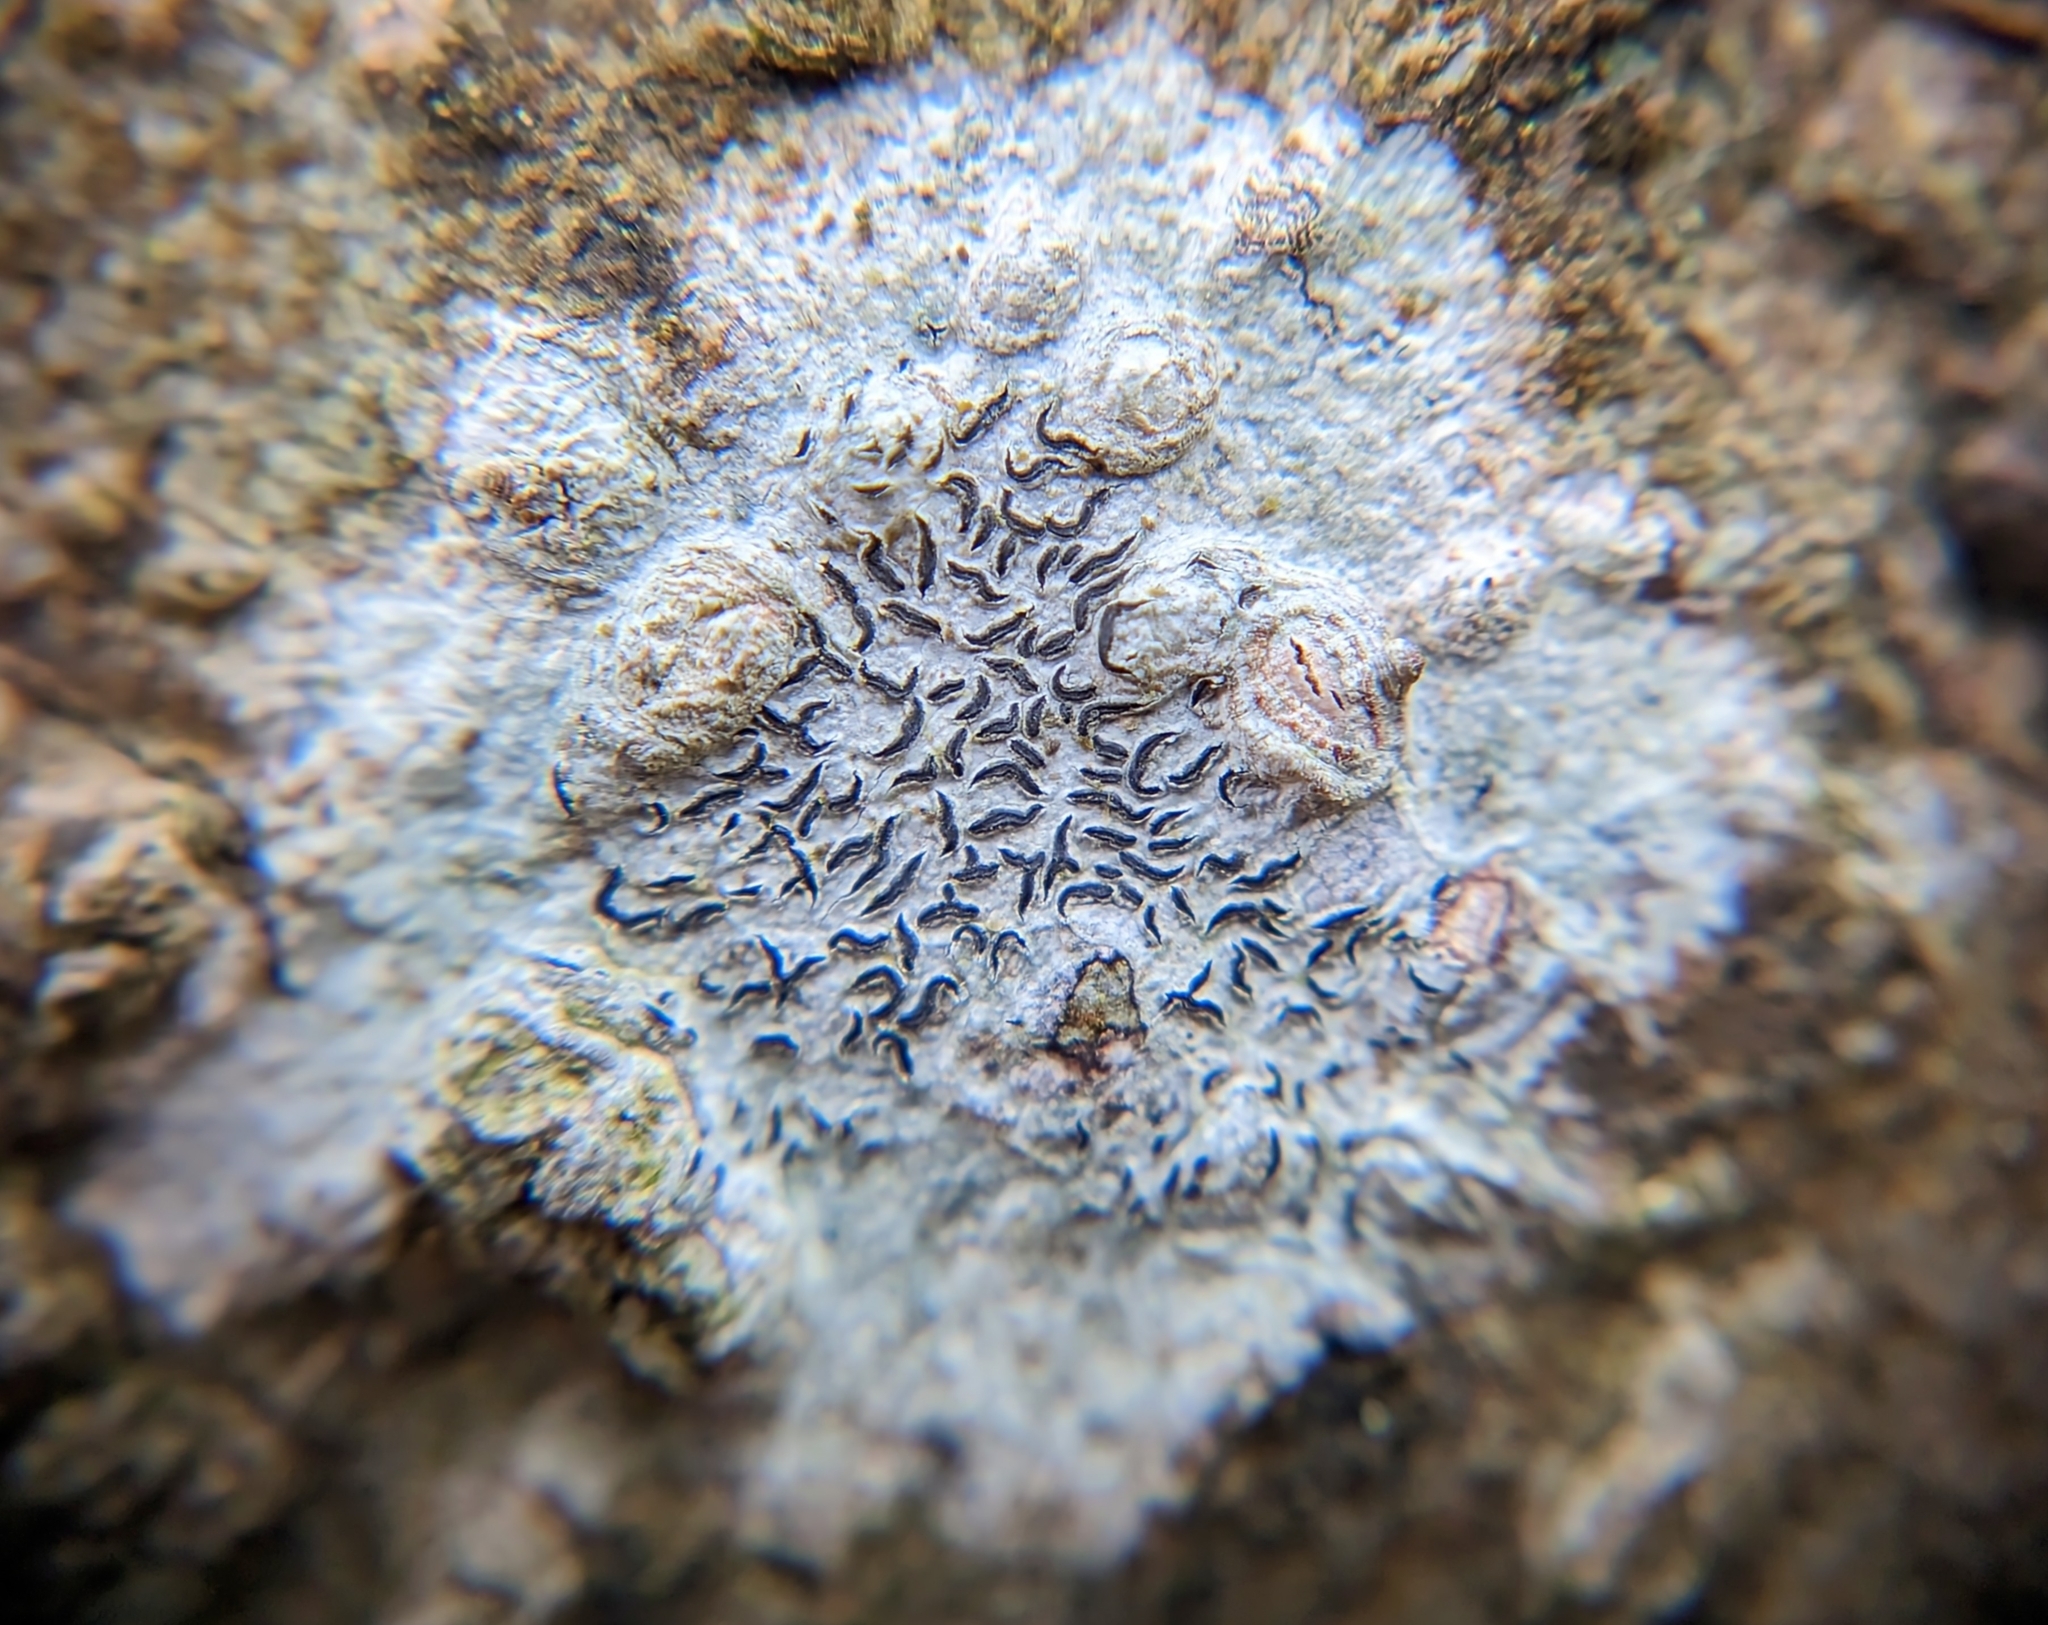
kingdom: Fungi
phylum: Ascomycota
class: Lecanoromycetes
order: Ostropales
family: Graphidaceae
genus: Graphis
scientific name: Graphis scripta
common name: Script lichen
